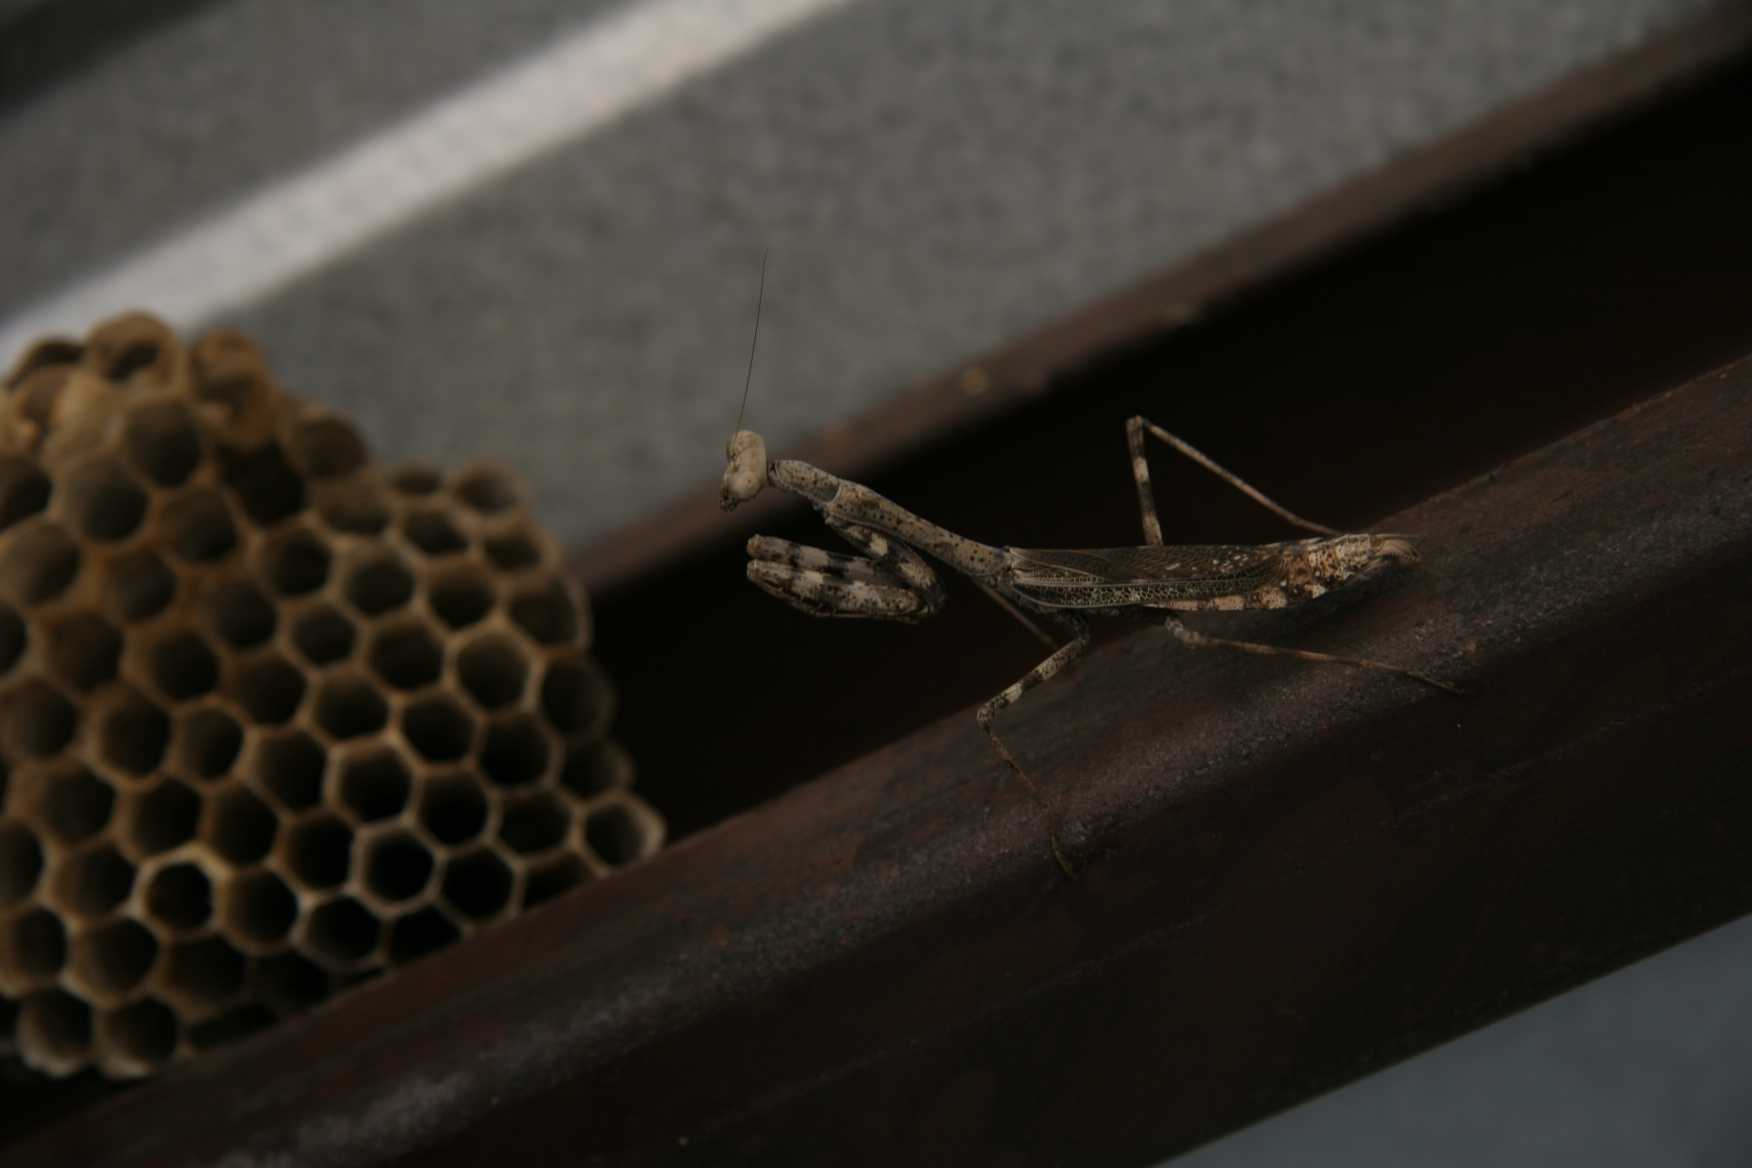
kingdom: Animalia
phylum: Arthropoda
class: Insecta
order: Mantodea
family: Mantidae
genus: Stagmomantis
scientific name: Stagmomantis carolina
